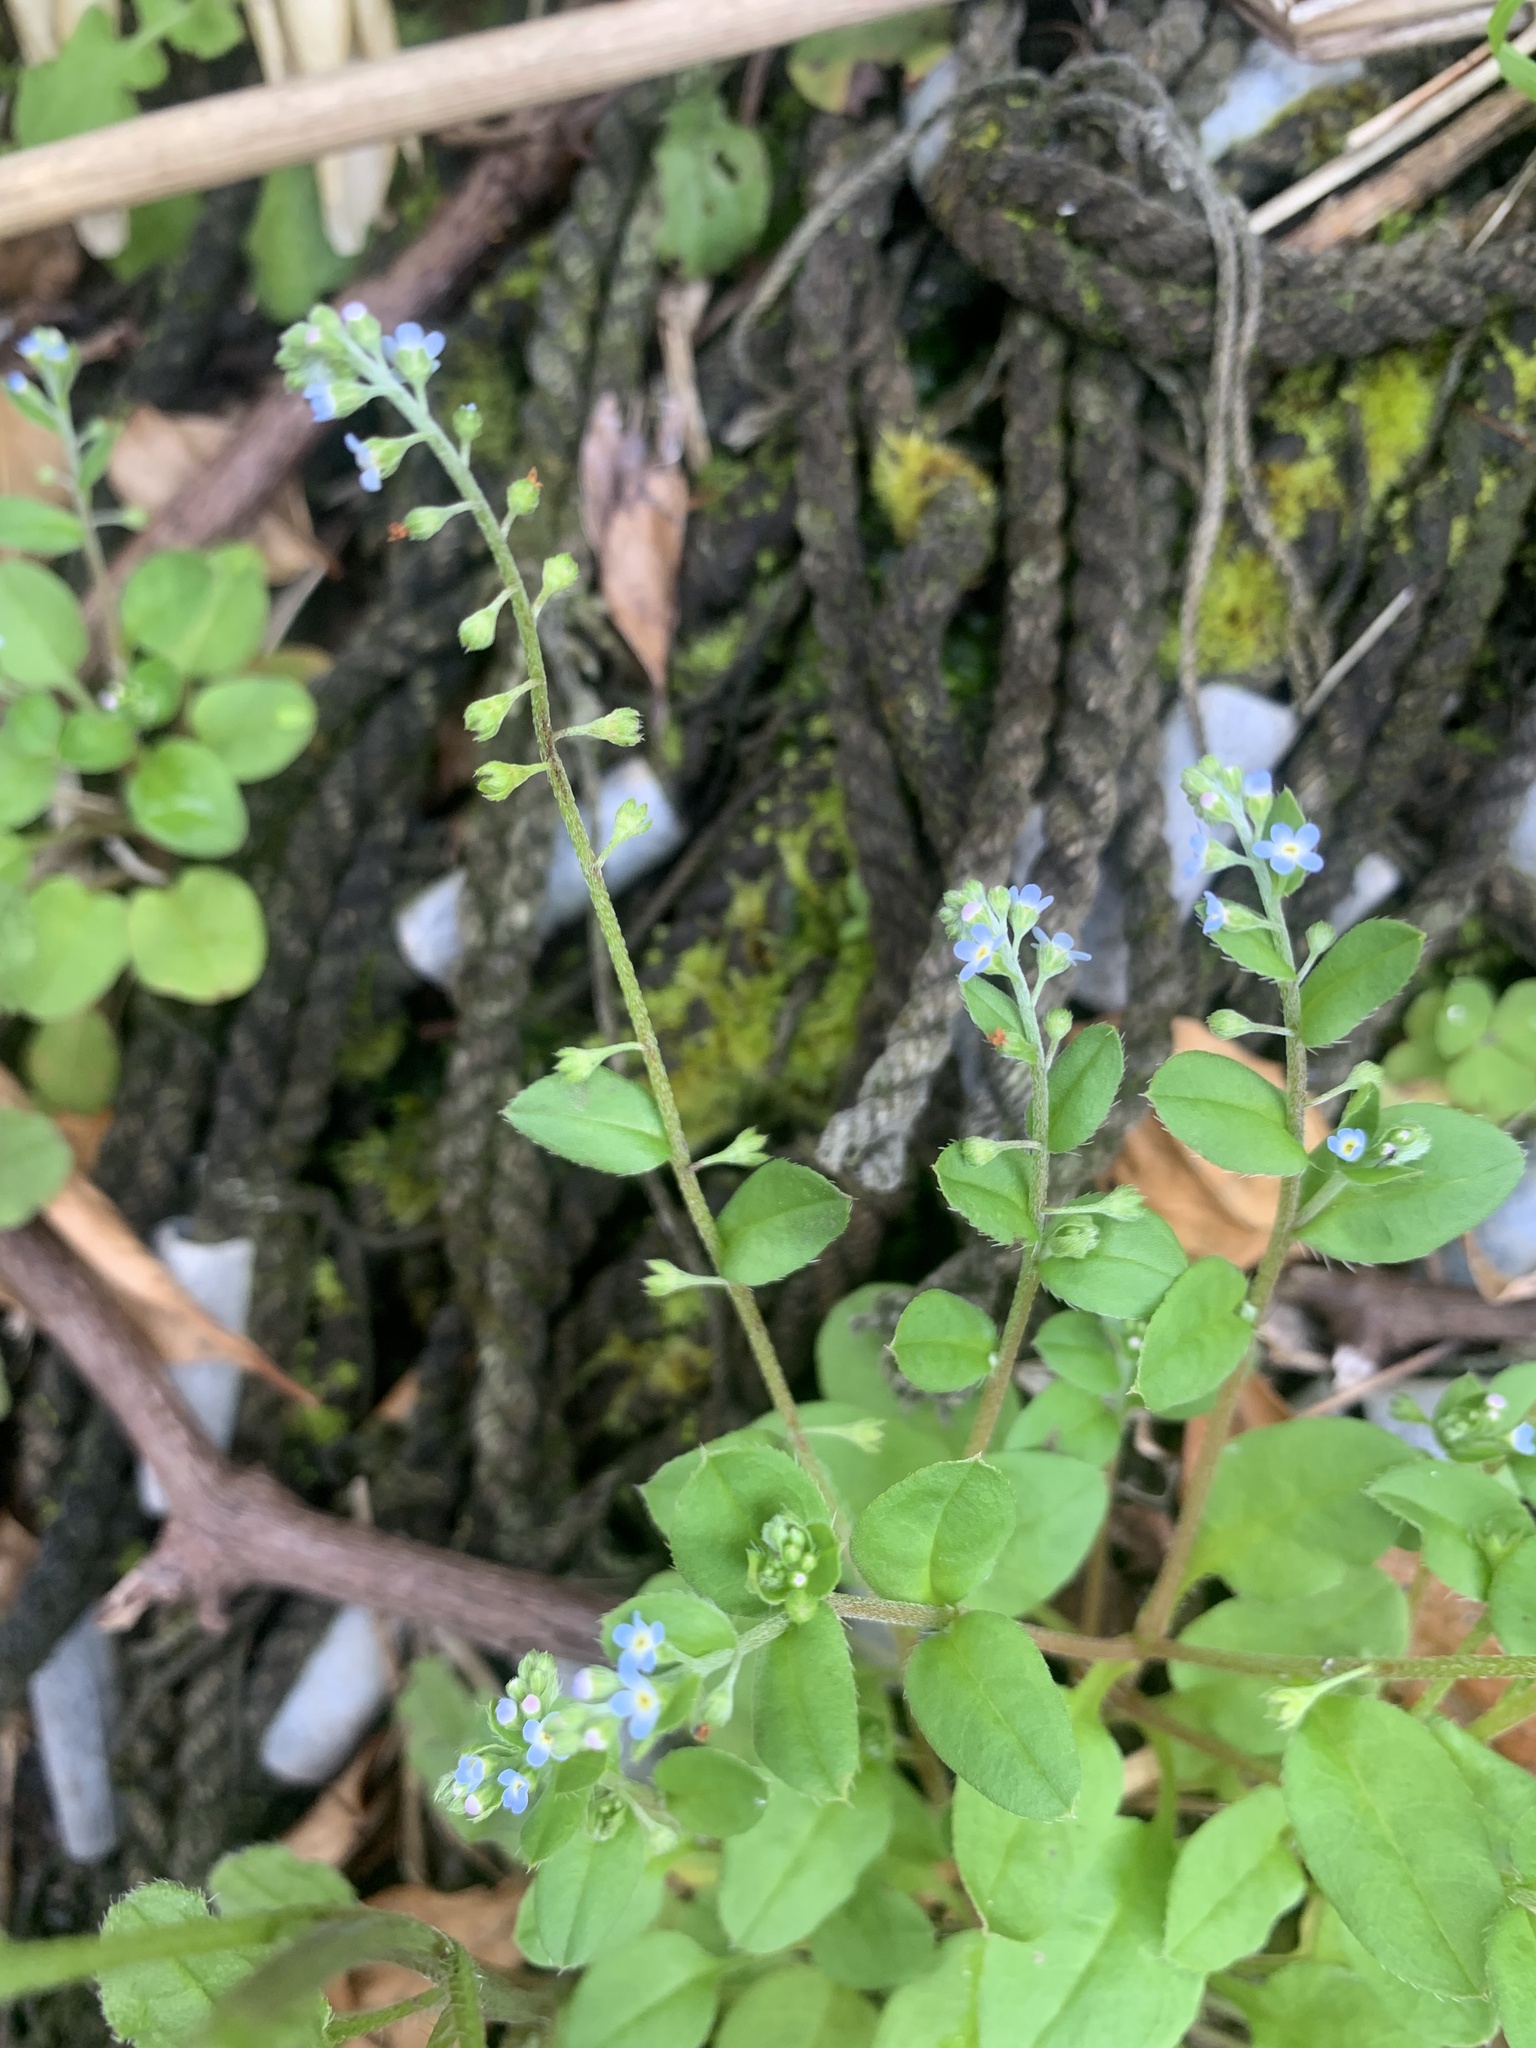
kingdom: Plantae
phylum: Tracheophyta
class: Magnoliopsida
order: Boraginales
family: Boraginaceae
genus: Trigonotis
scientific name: Trigonotis peduncularis
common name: Cucumber herb
